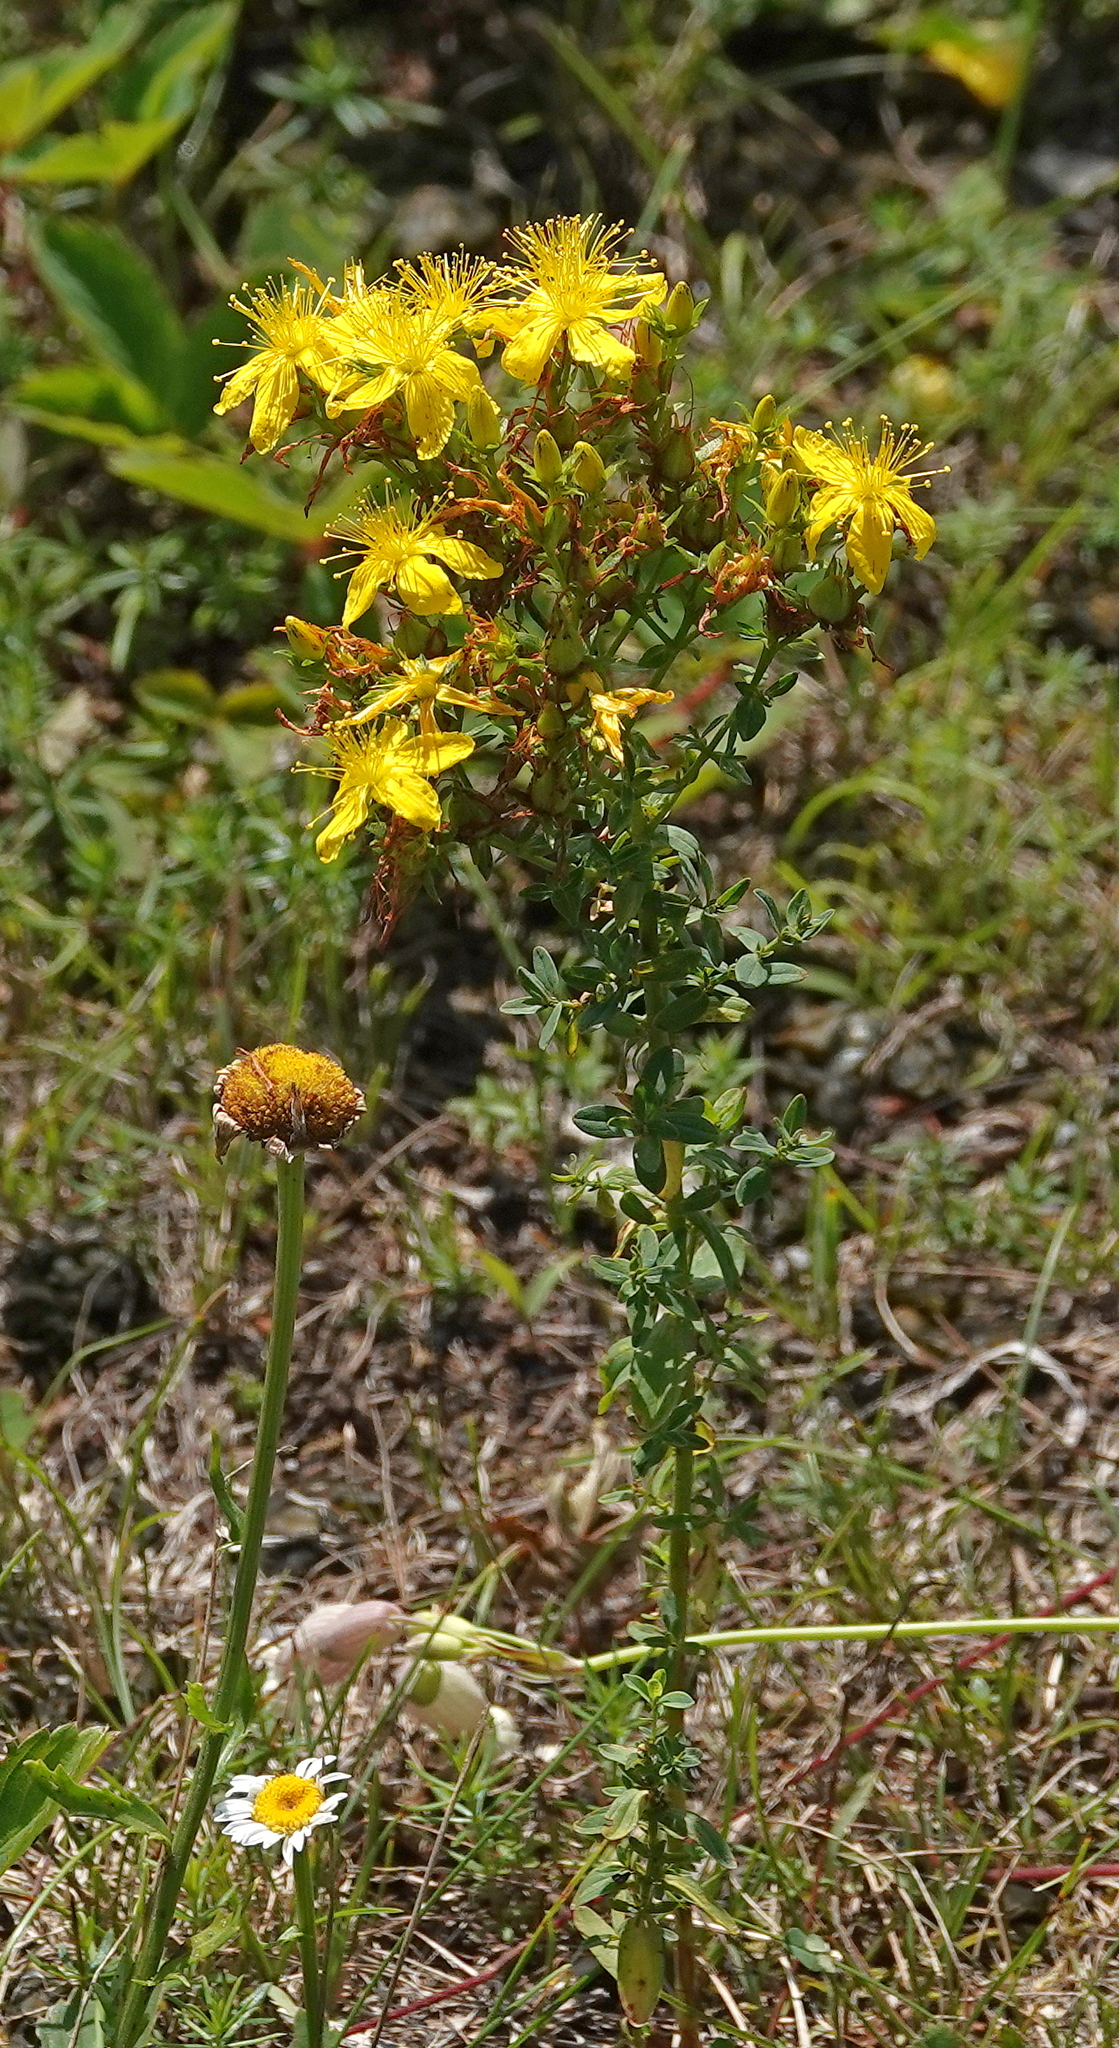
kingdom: Plantae
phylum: Tracheophyta
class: Magnoliopsida
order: Malpighiales
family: Hypericaceae
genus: Hypericum
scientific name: Hypericum perforatum
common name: Common st. johnswort
